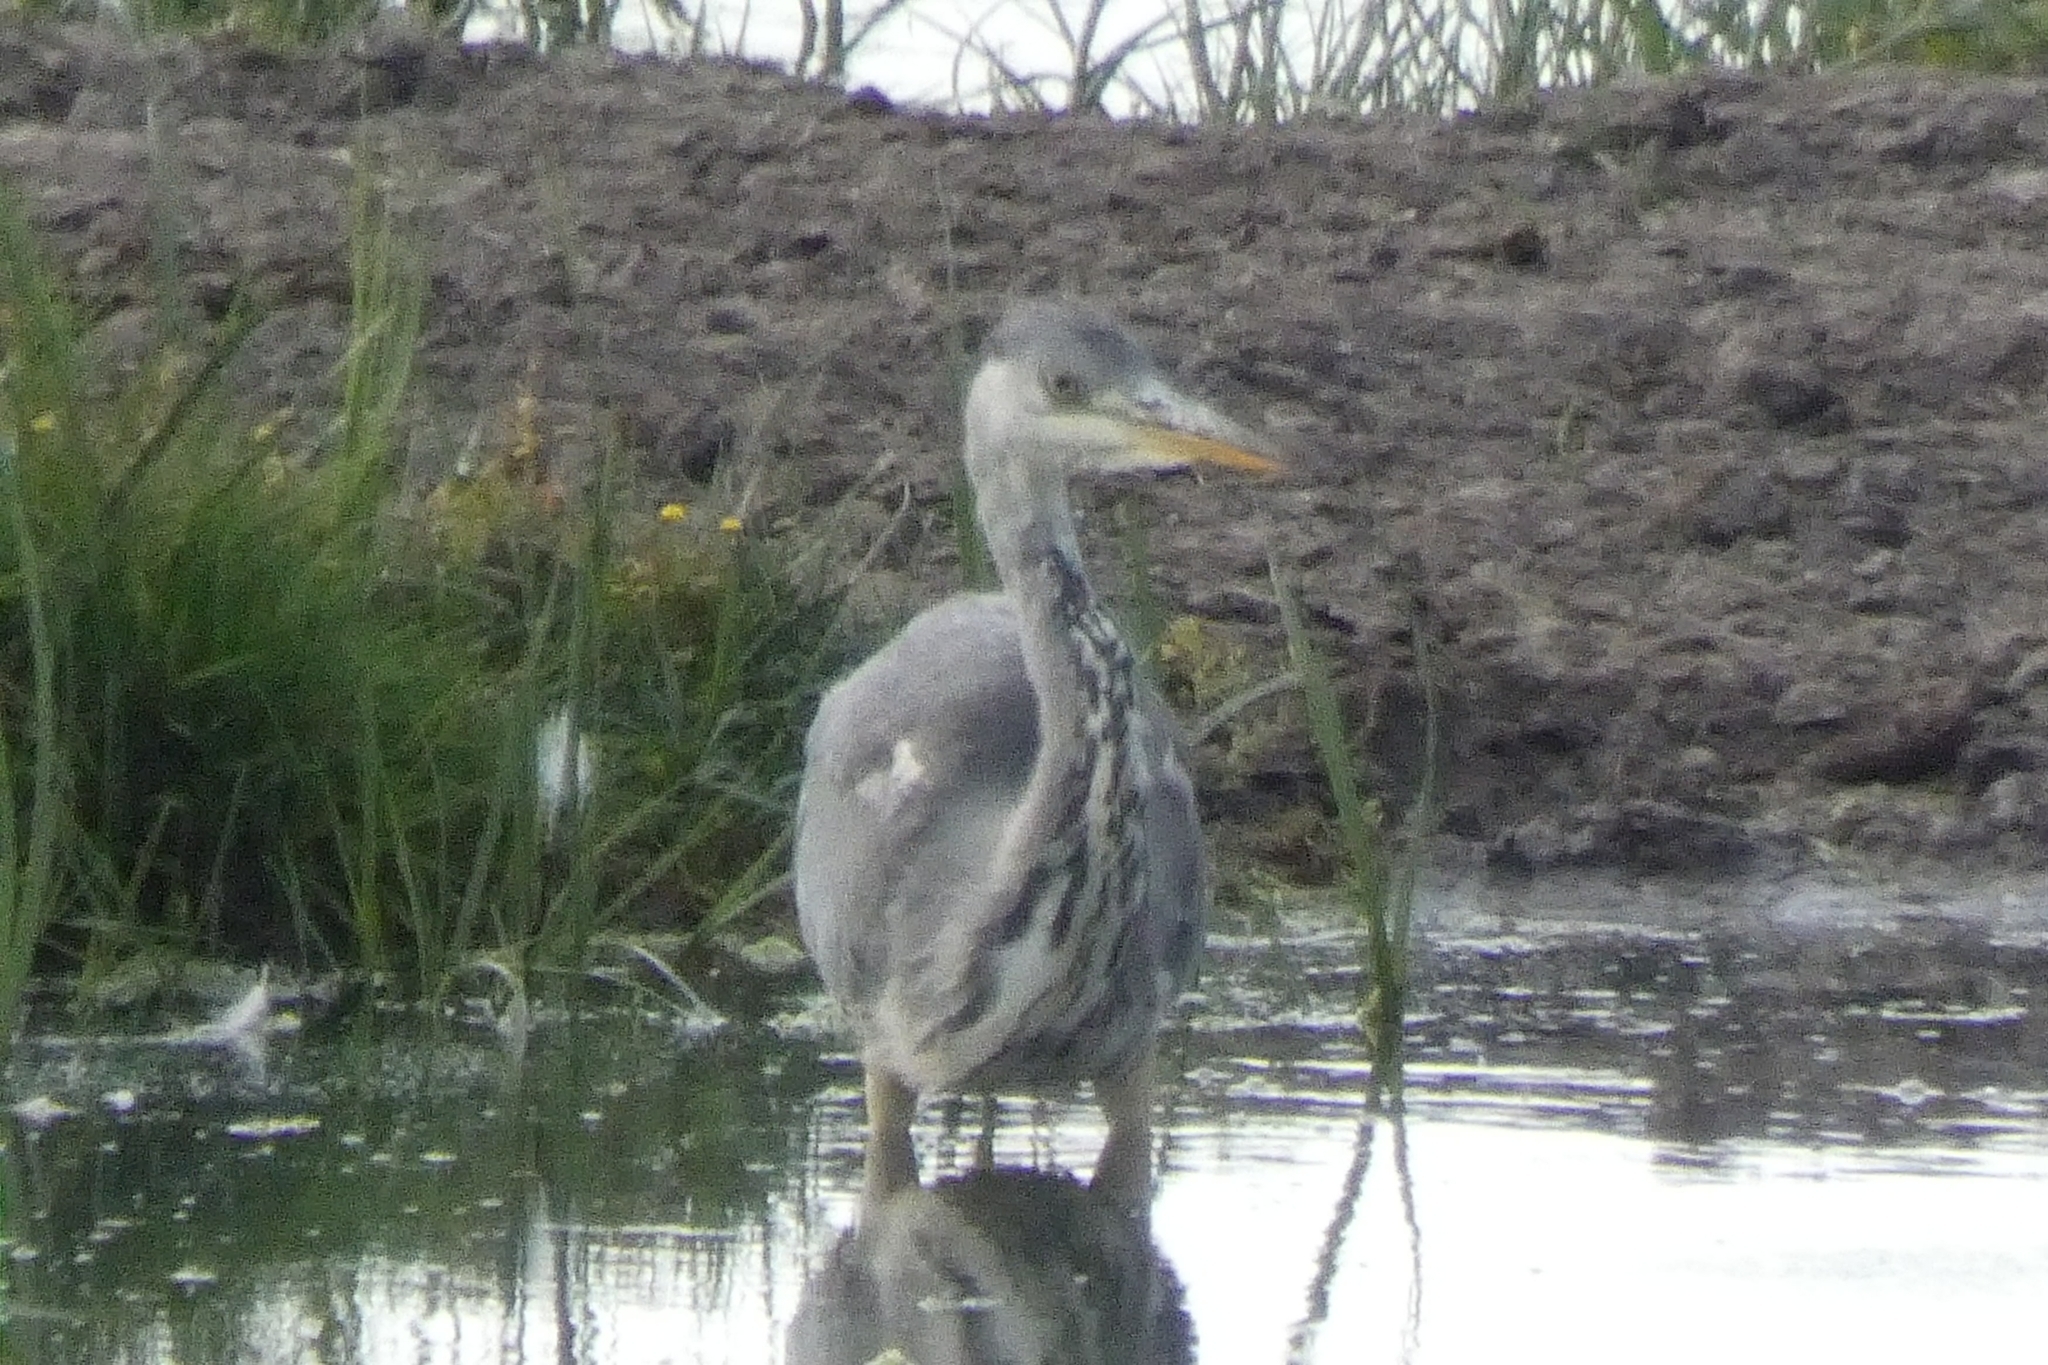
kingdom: Animalia
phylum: Chordata
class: Aves
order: Pelecaniformes
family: Ardeidae
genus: Ardea
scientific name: Ardea cinerea
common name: Grey heron
